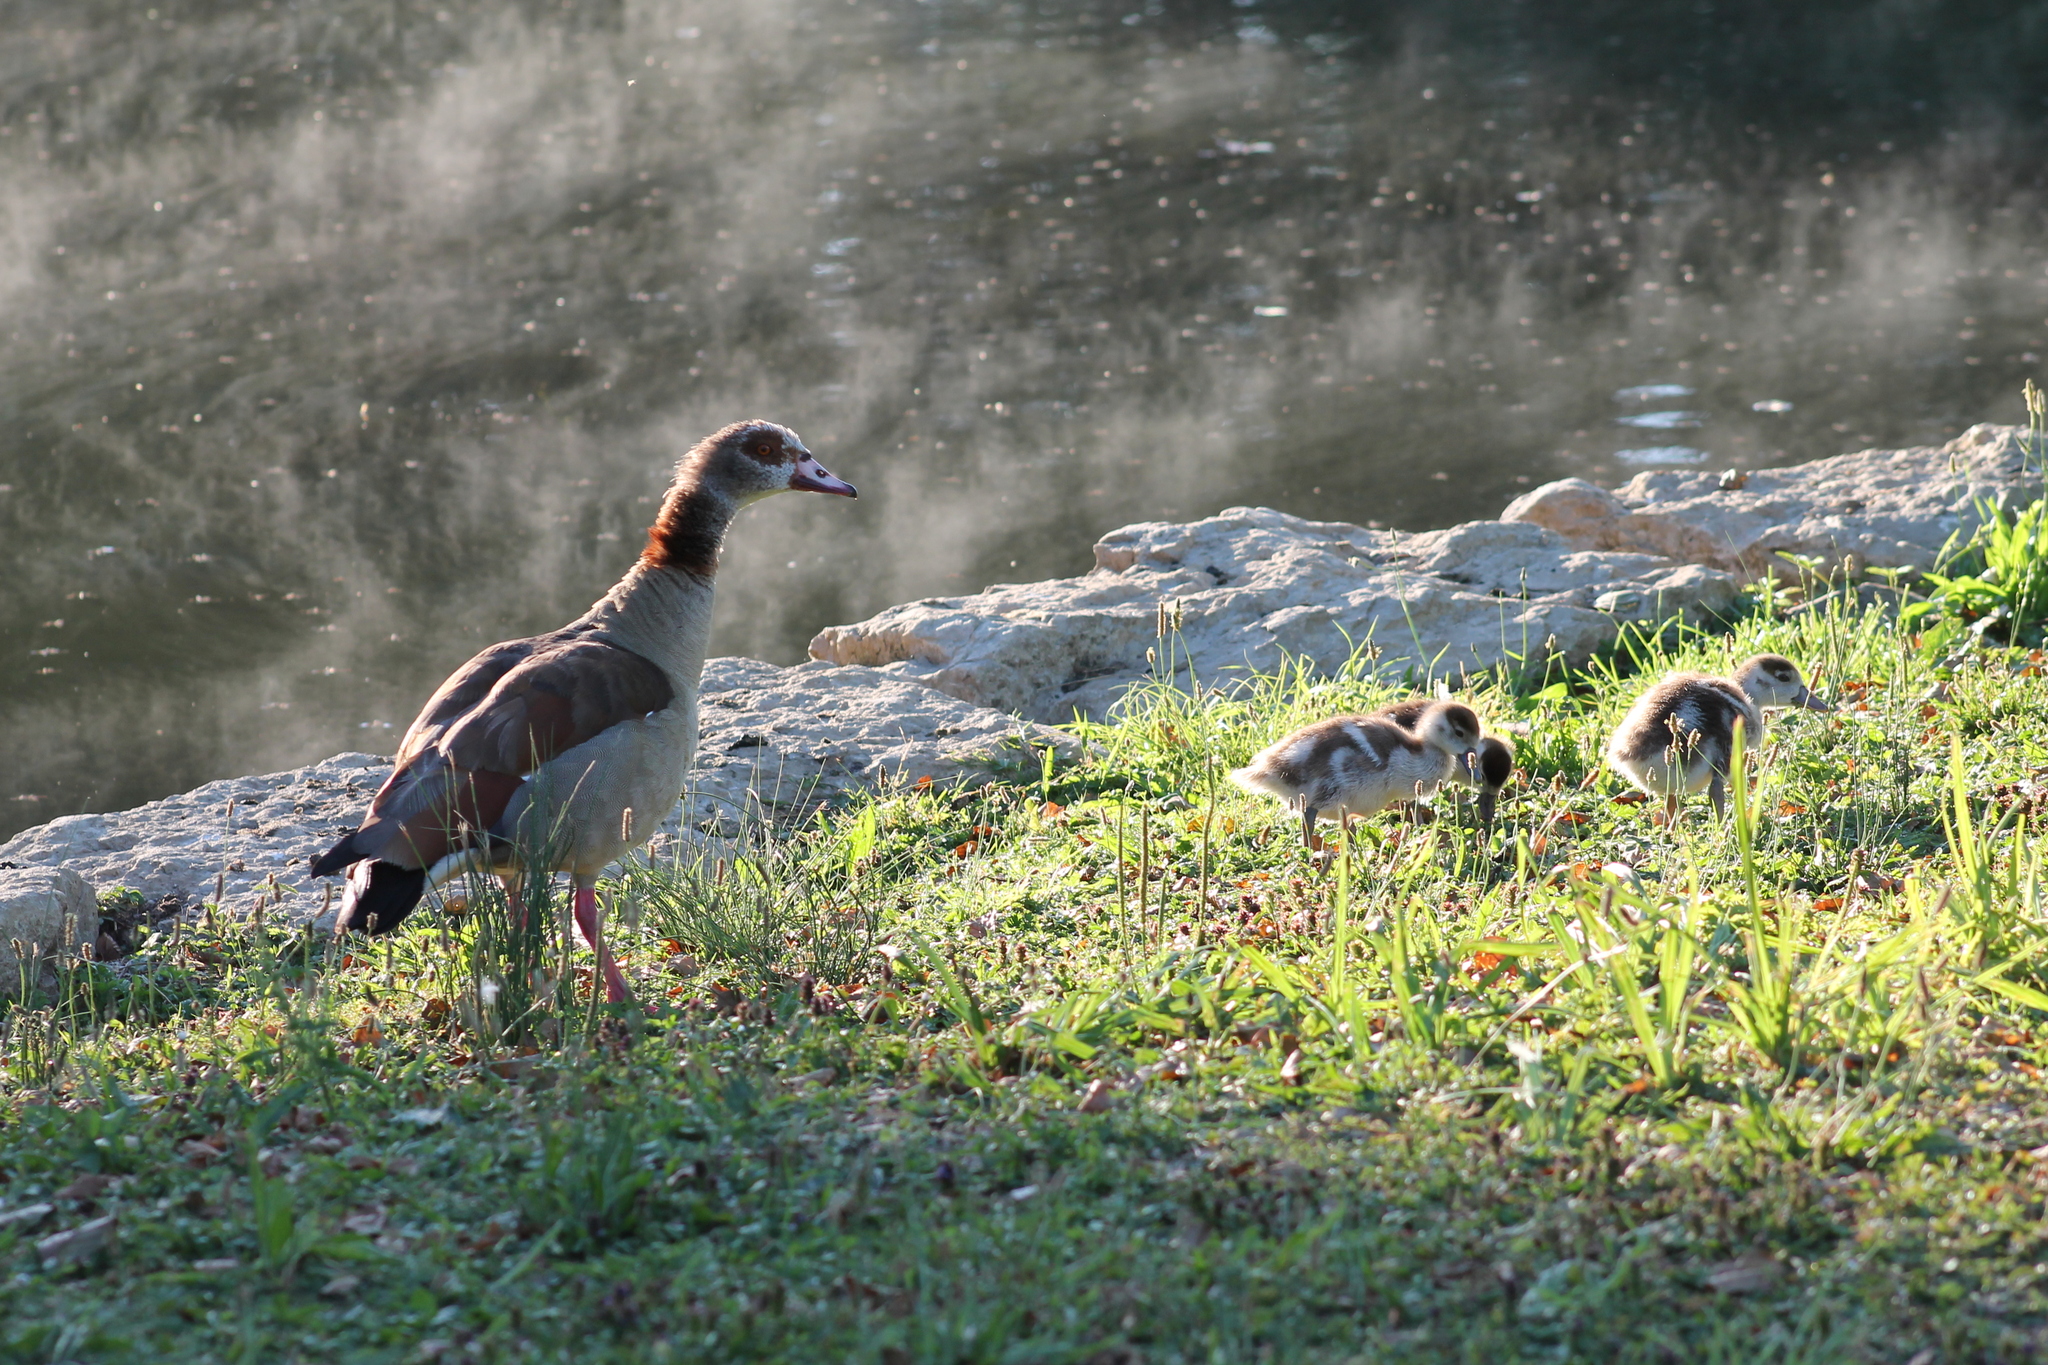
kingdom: Animalia
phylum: Chordata
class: Aves
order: Anseriformes
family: Anatidae
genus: Alopochen
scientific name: Alopochen aegyptiaca
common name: Egyptian goose
